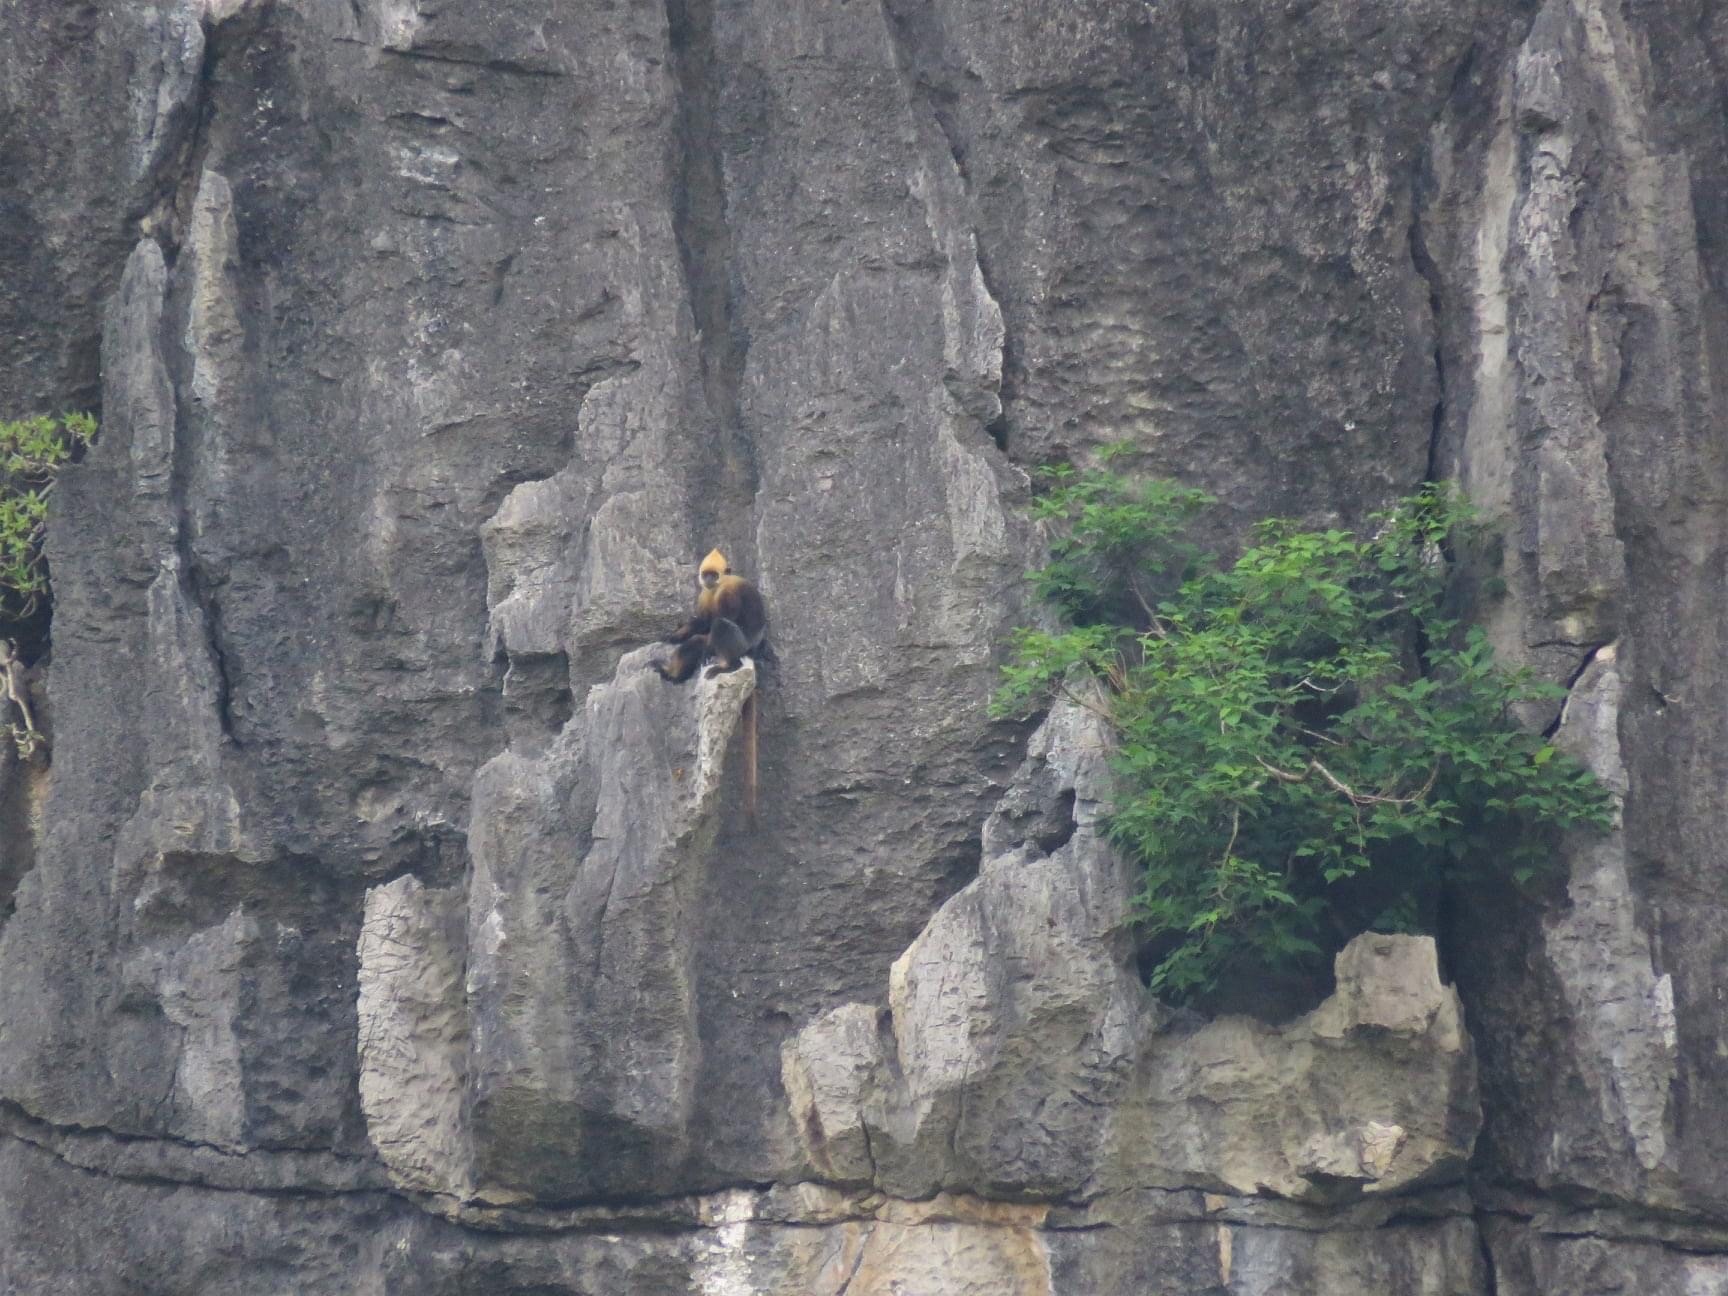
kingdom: Animalia
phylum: Chordata
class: Mammalia
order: Primates
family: Cercopithecidae
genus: Trachypithecus
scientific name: Trachypithecus poliocephalus
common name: Cat ba langur
